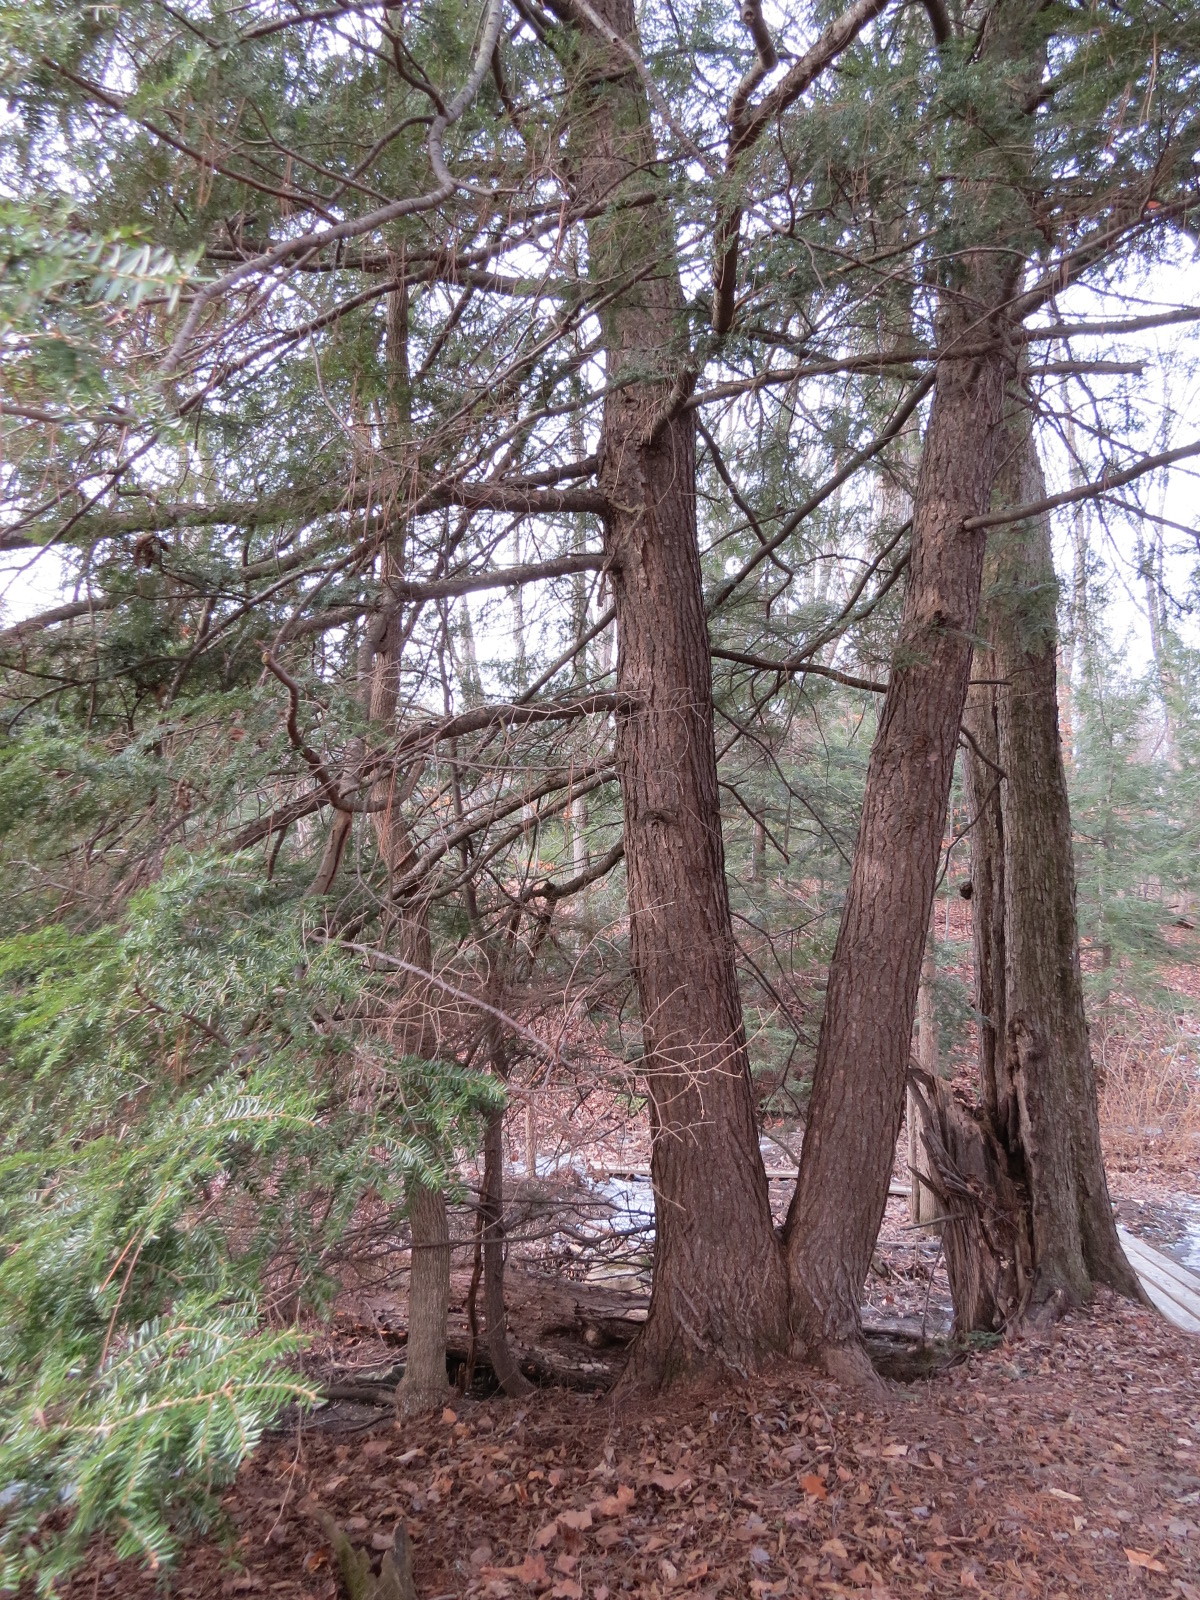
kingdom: Plantae
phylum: Tracheophyta
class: Pinopsida
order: Pinales
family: Pinaceae
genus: Tsuga
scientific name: Tsuga canadensis
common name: Eastern hemlock
